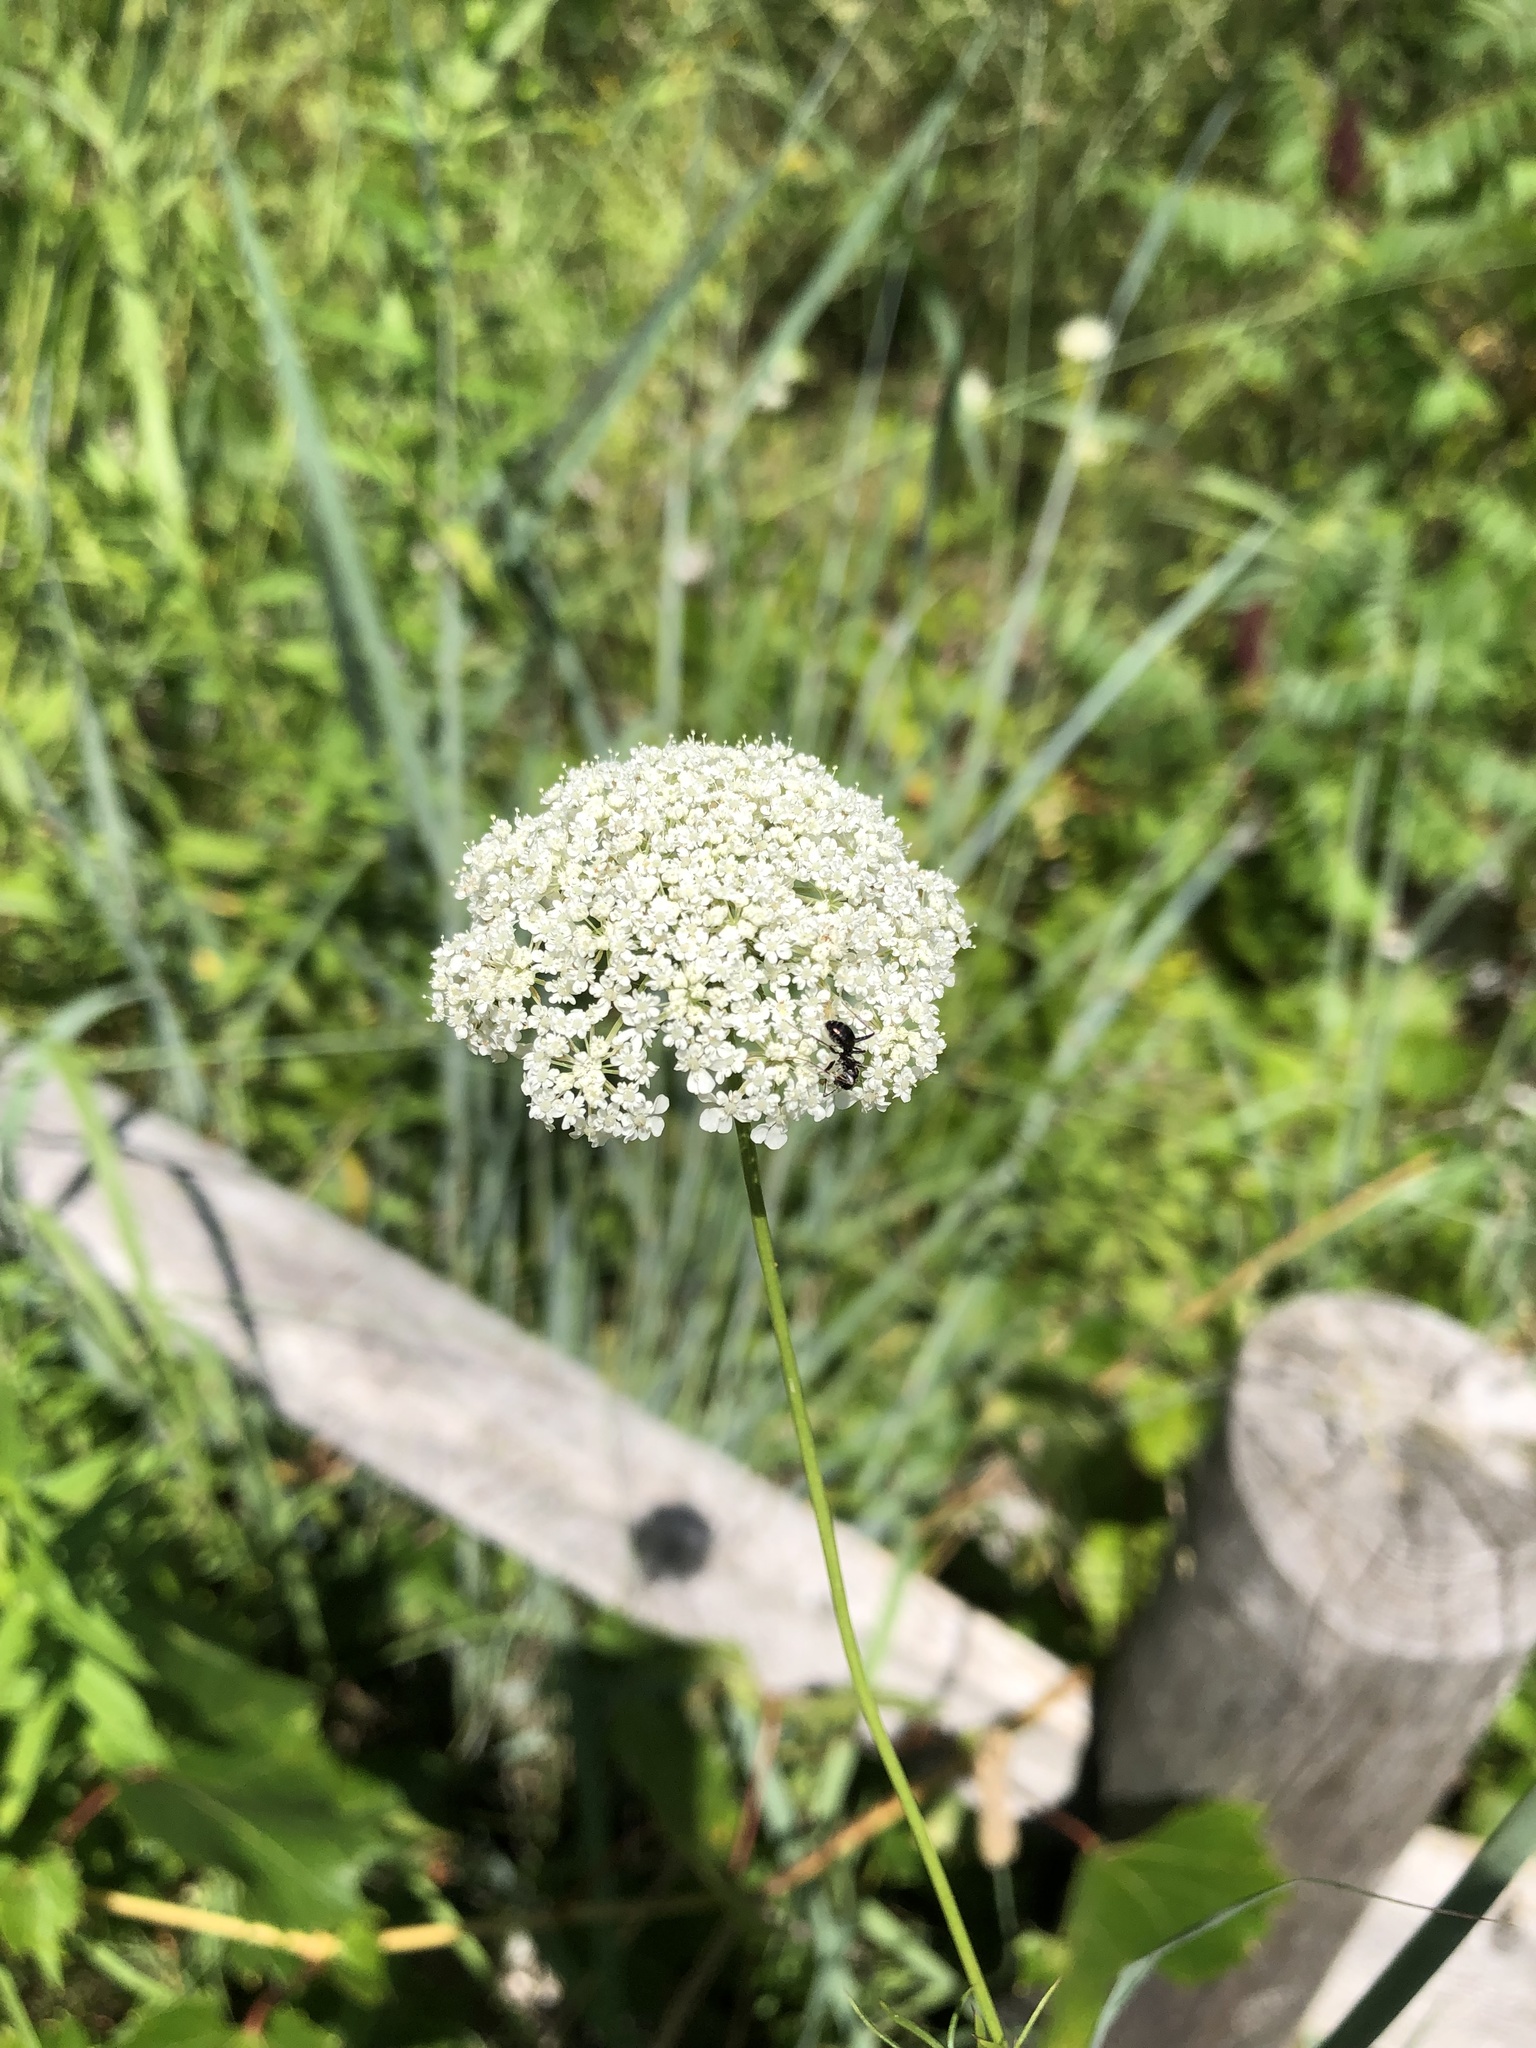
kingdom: Plantae
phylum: Tracheophyta
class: Magnoliopsida
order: Apiales
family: Apiaceae
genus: Daucus
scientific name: Daucus carota
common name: Wild carrot
